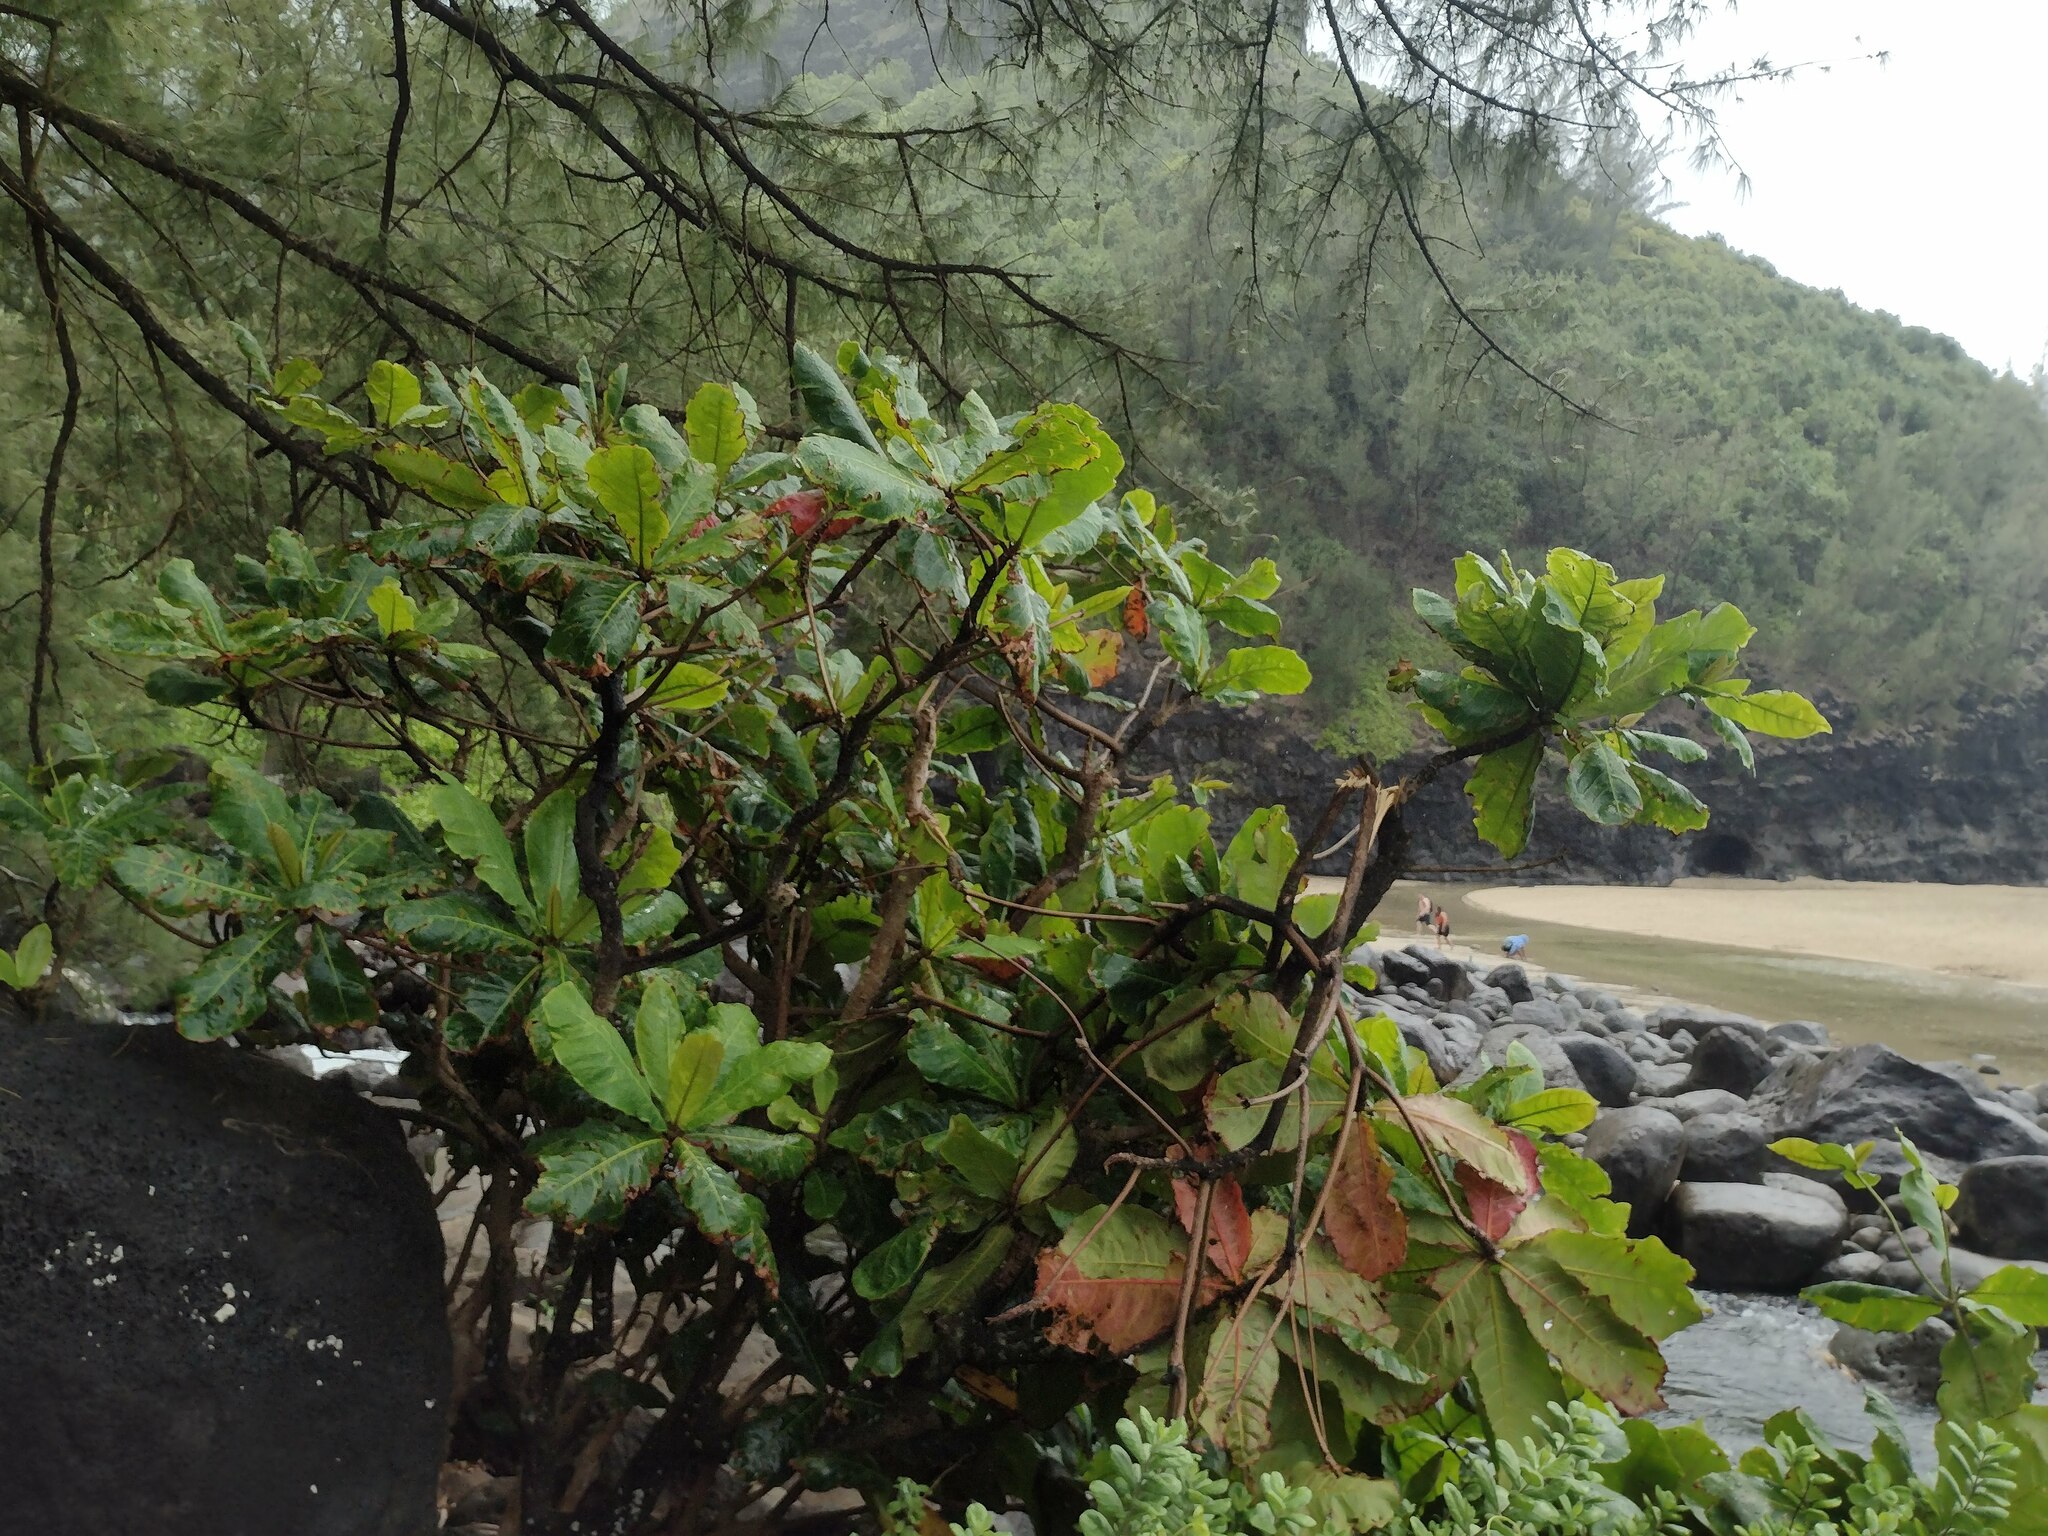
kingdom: Plantae
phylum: Tracheophyta
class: Magnoliopsida
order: Myrtales
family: Combretaceae
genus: Terminalia
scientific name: Terminalia catappa
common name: Tropical almond
